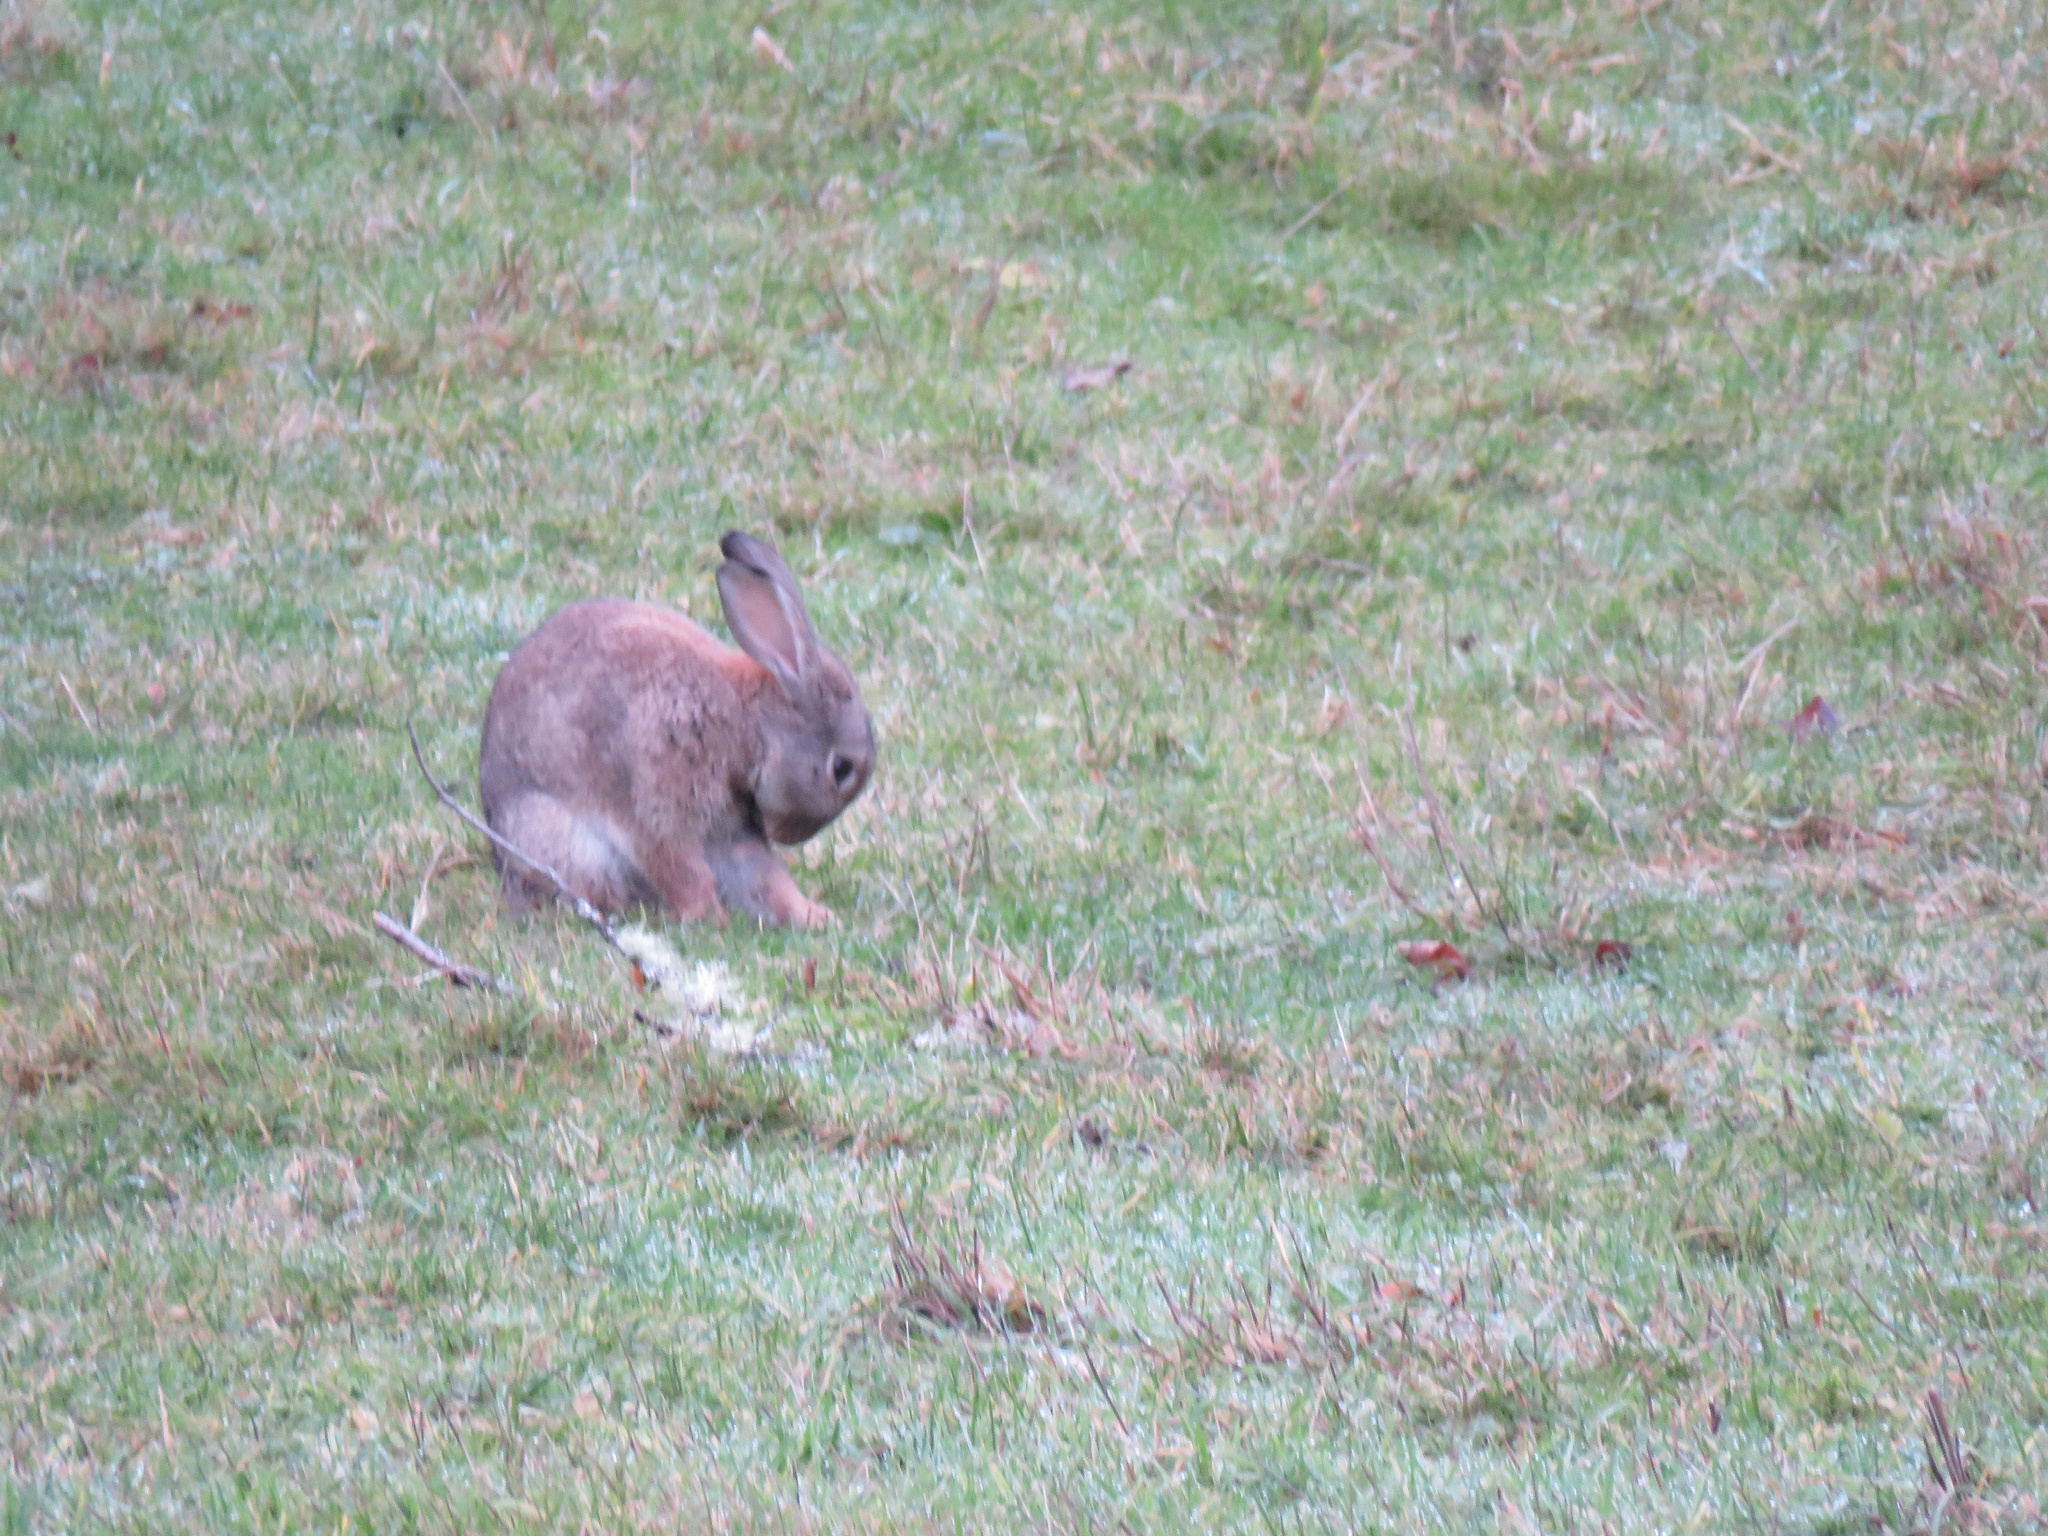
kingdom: Animalia
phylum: Chordata
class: Mammalia
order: Lagomorpha
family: Leporidae
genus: Oryctolagus
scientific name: Oryctolagus cuniculus
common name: European rabbit
